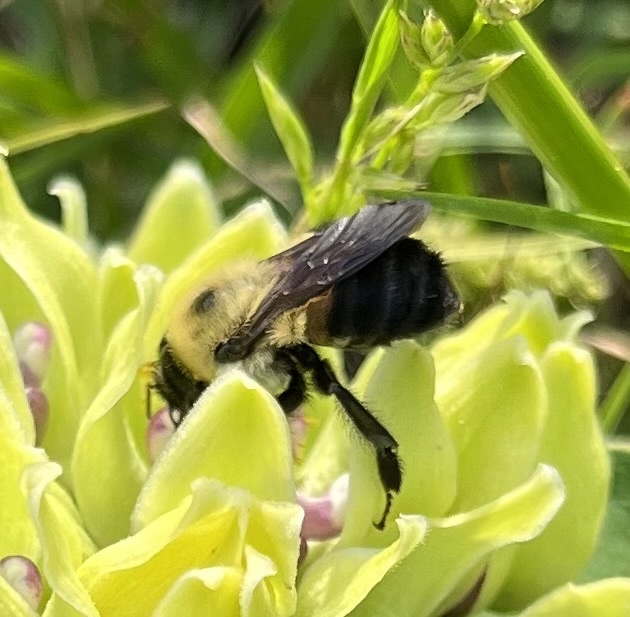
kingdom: Animalia
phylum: Arthropoda
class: Insecta
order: Hymenoptera
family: Apidae
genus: Bombus
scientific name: Bombus griseocollis
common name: Brown-belted bumble bee
